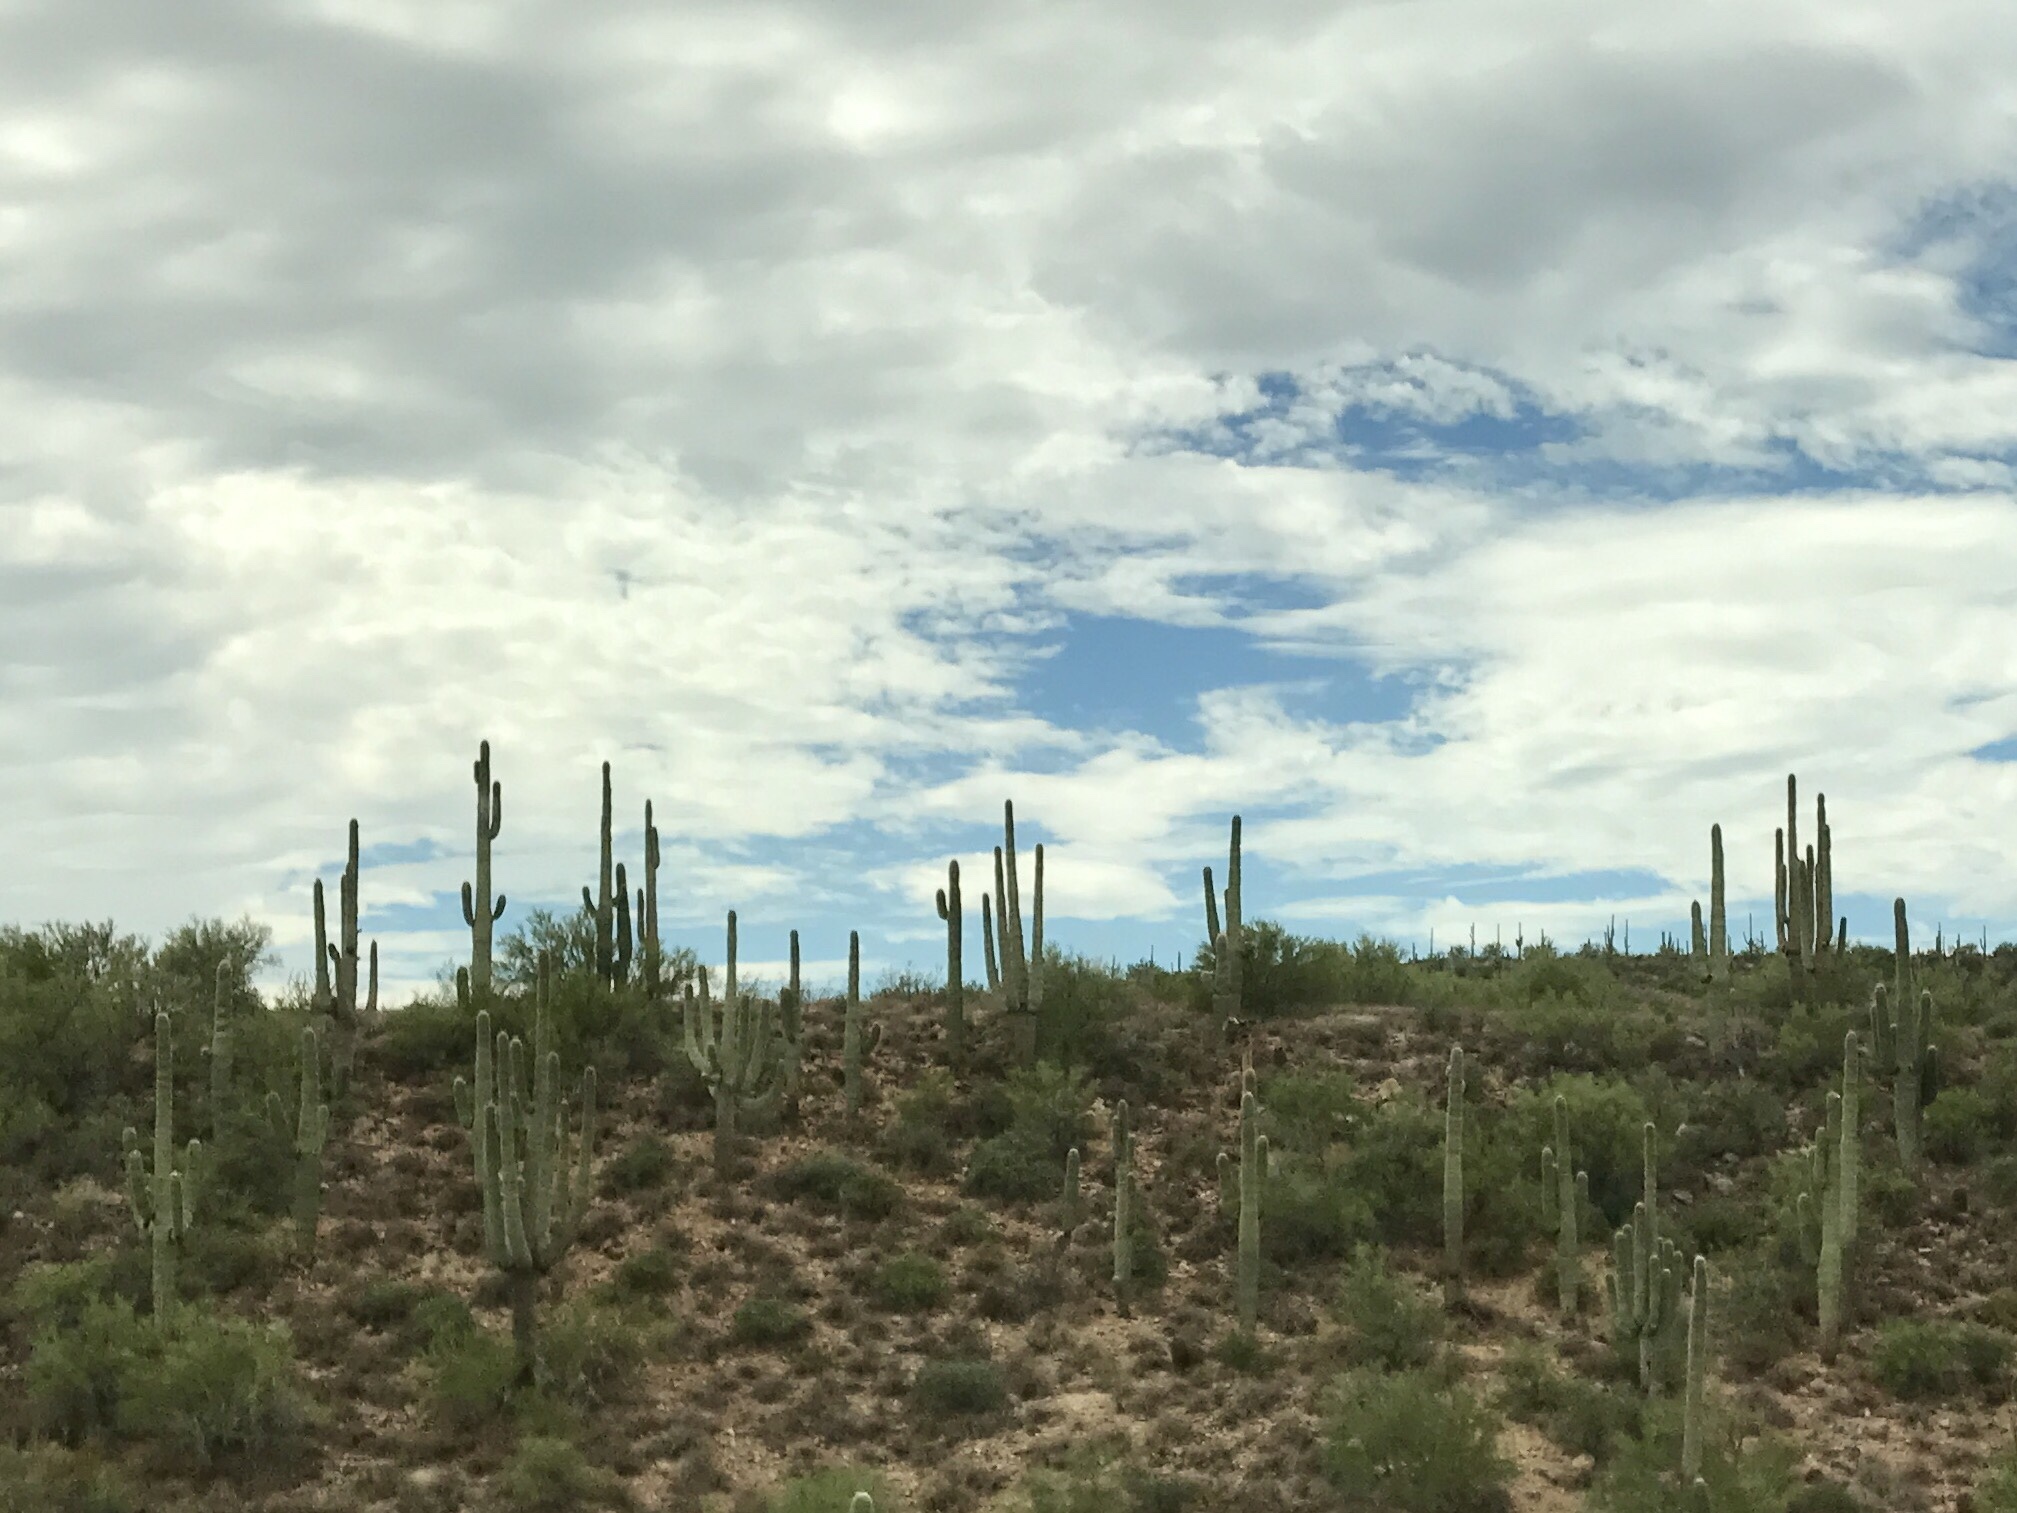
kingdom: Plantae
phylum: Tracheophyta
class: Magnoliopsida
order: Caryophyllales
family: Cactaceae
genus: Carnegiea
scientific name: Carnegiea gigantea
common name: Saguaro
